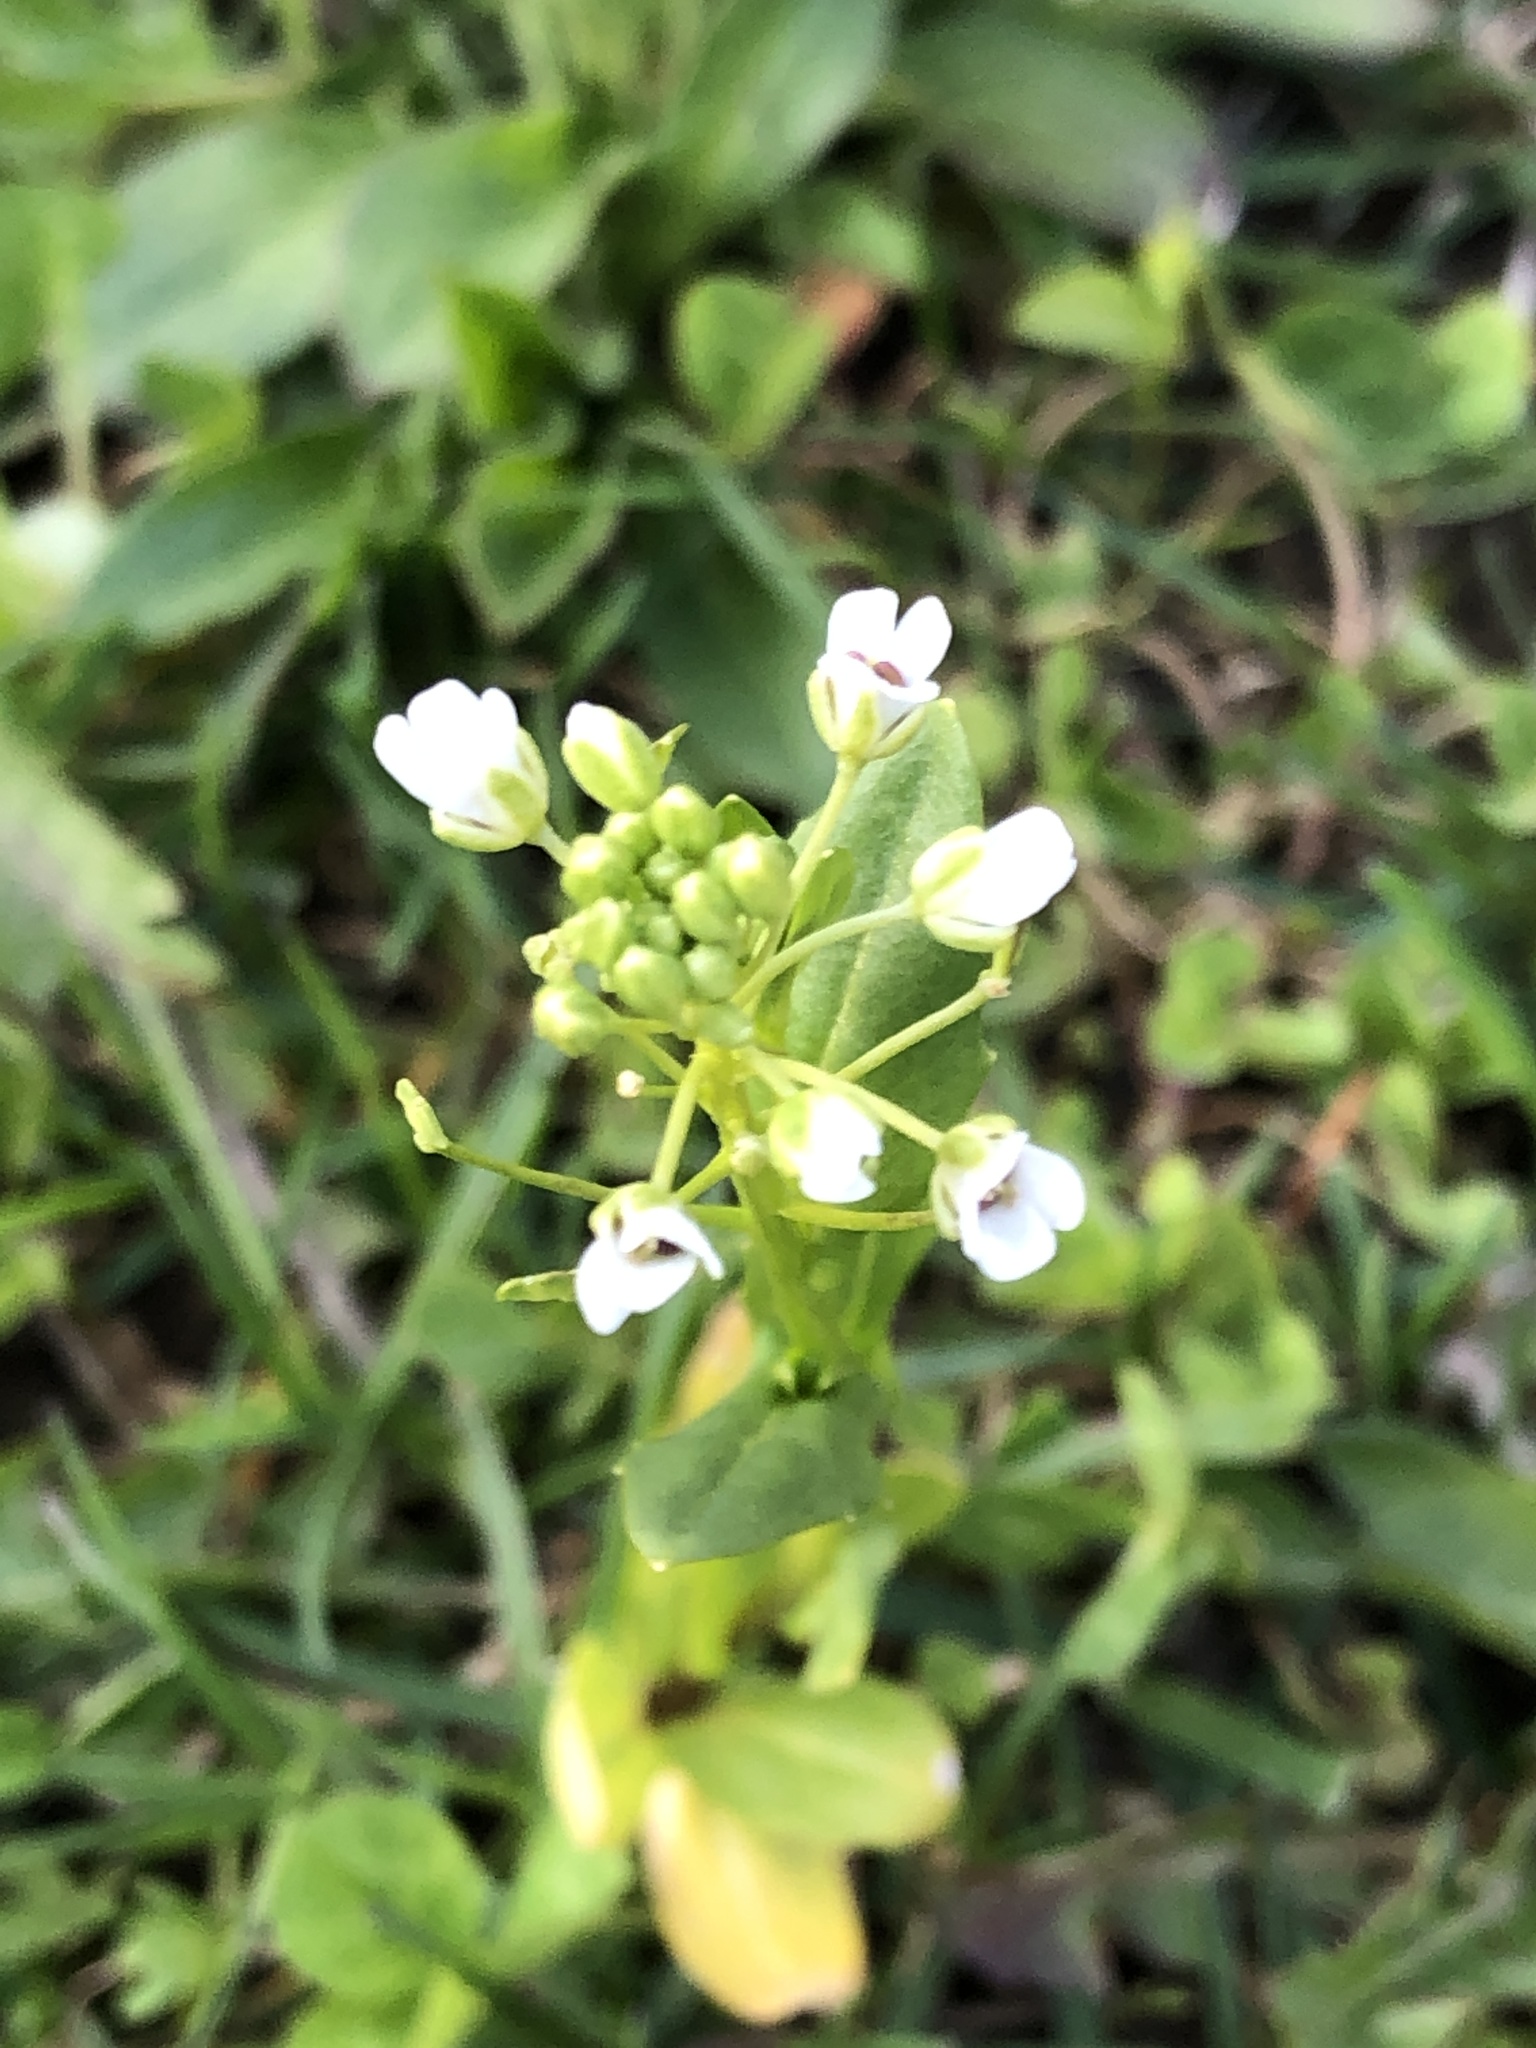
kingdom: Plantae
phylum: Tracheophyta
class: Magnoliopsida
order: Brassicales
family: Brassicaceae
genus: Thlaspi
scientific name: Thlaspi arvense
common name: Field pennycress
